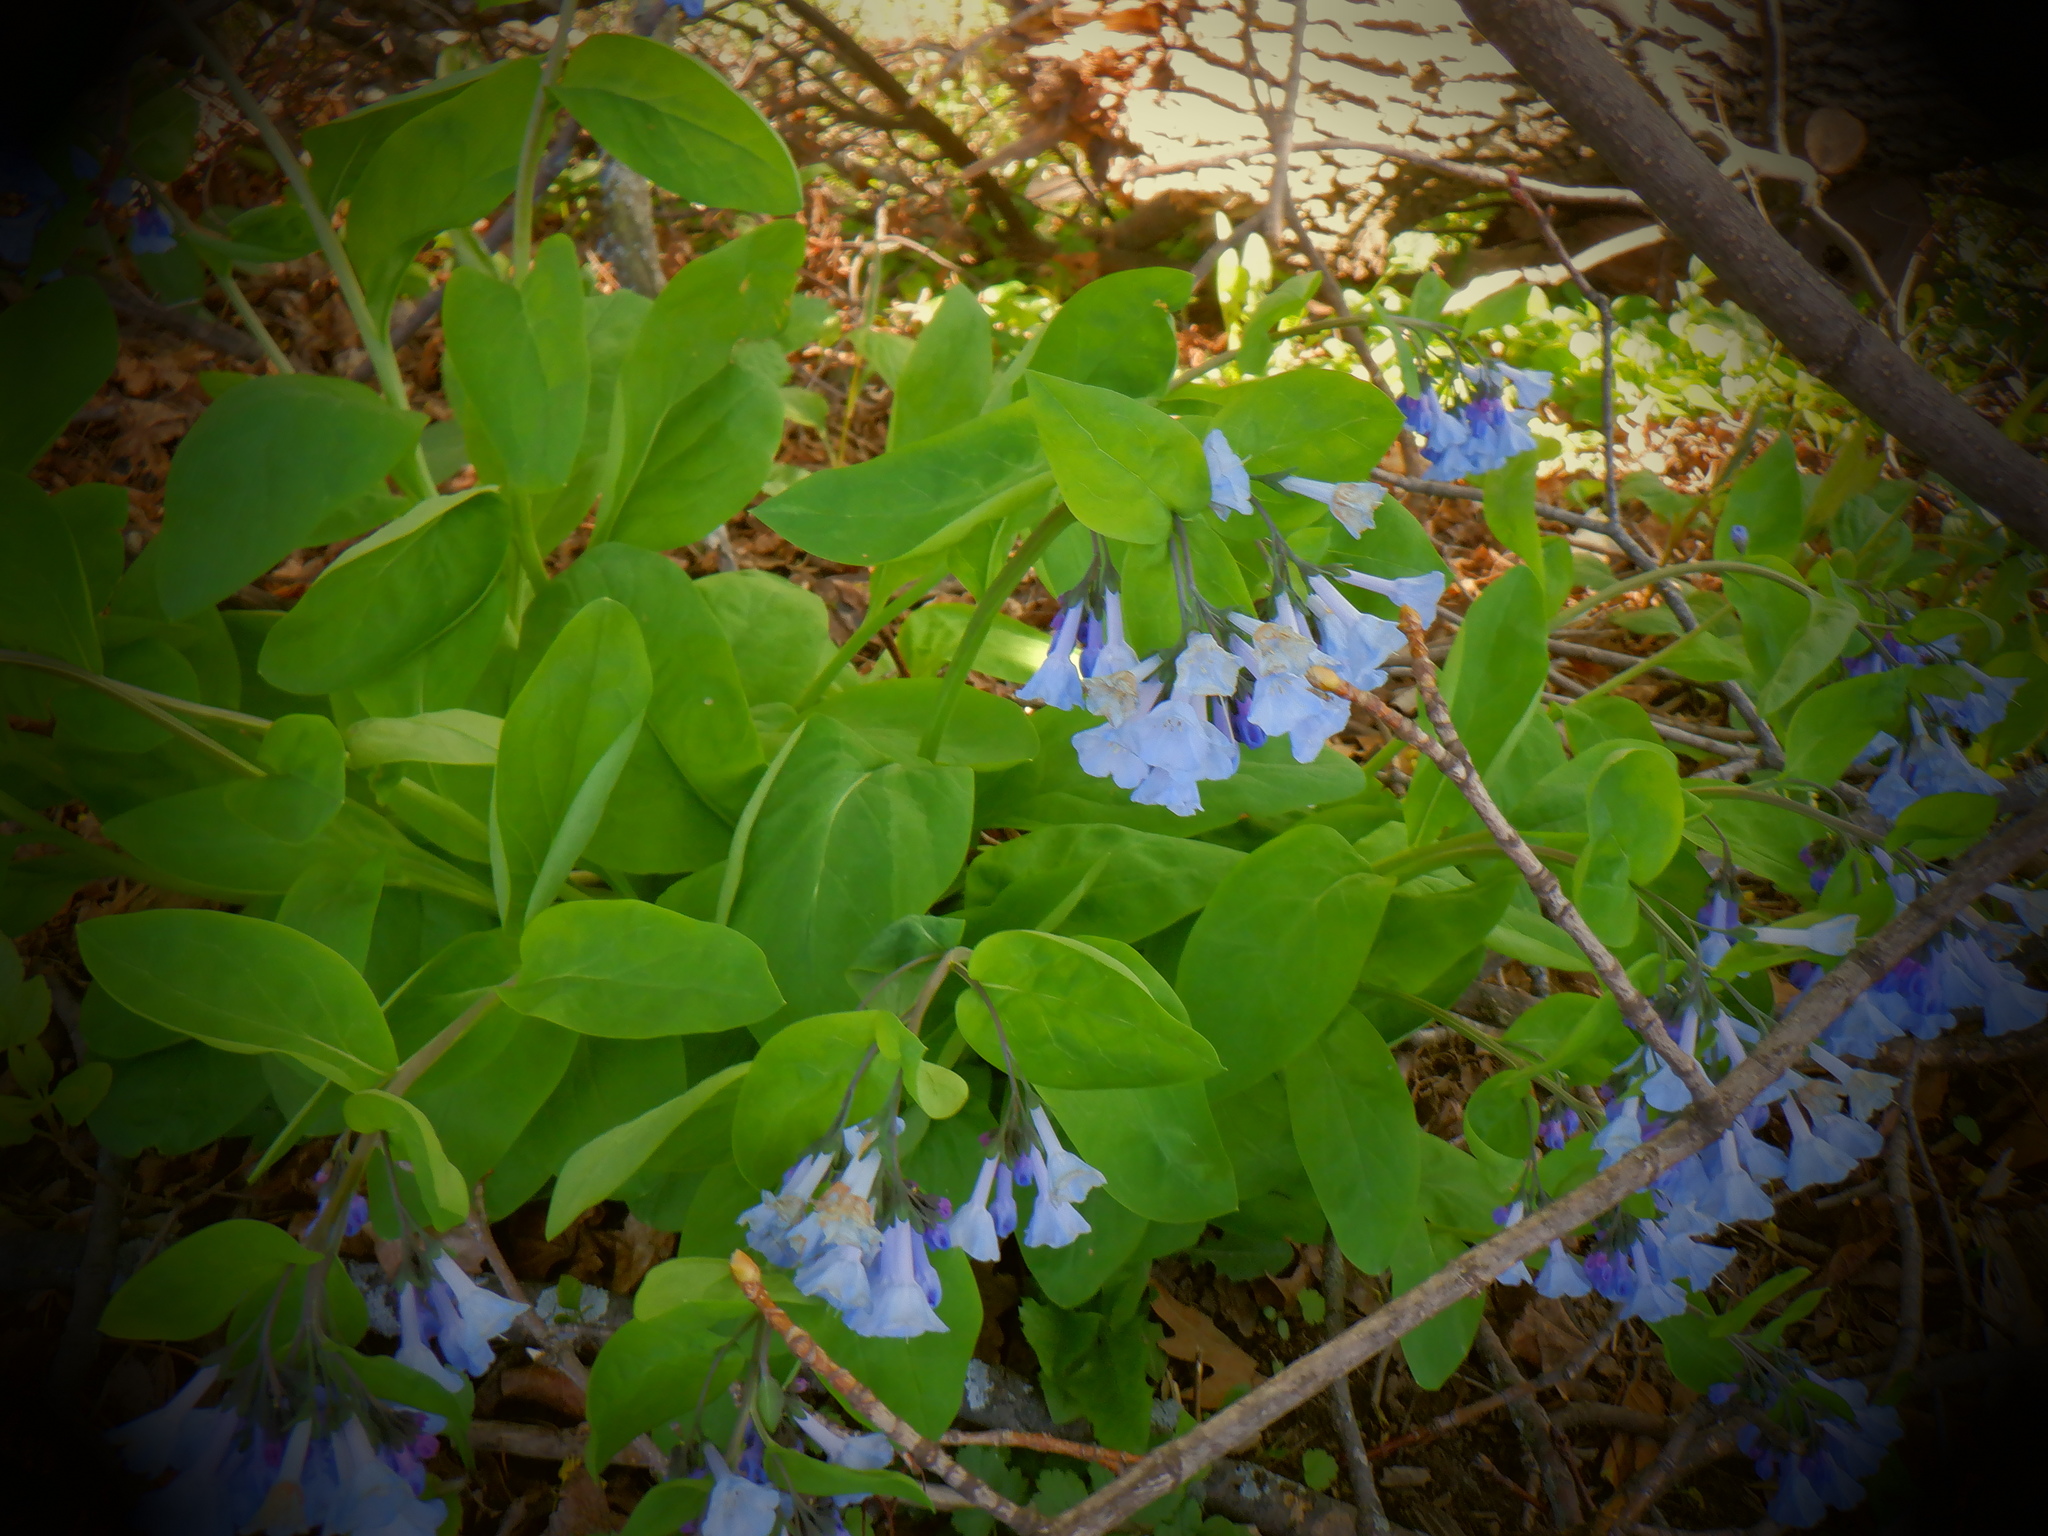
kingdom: Plantae
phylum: Tracheophyta
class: Magnoliopsida
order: Boraginales
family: Boraginaceae
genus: Mertensia
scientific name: Mertensia virginica
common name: Virginia bluebells
